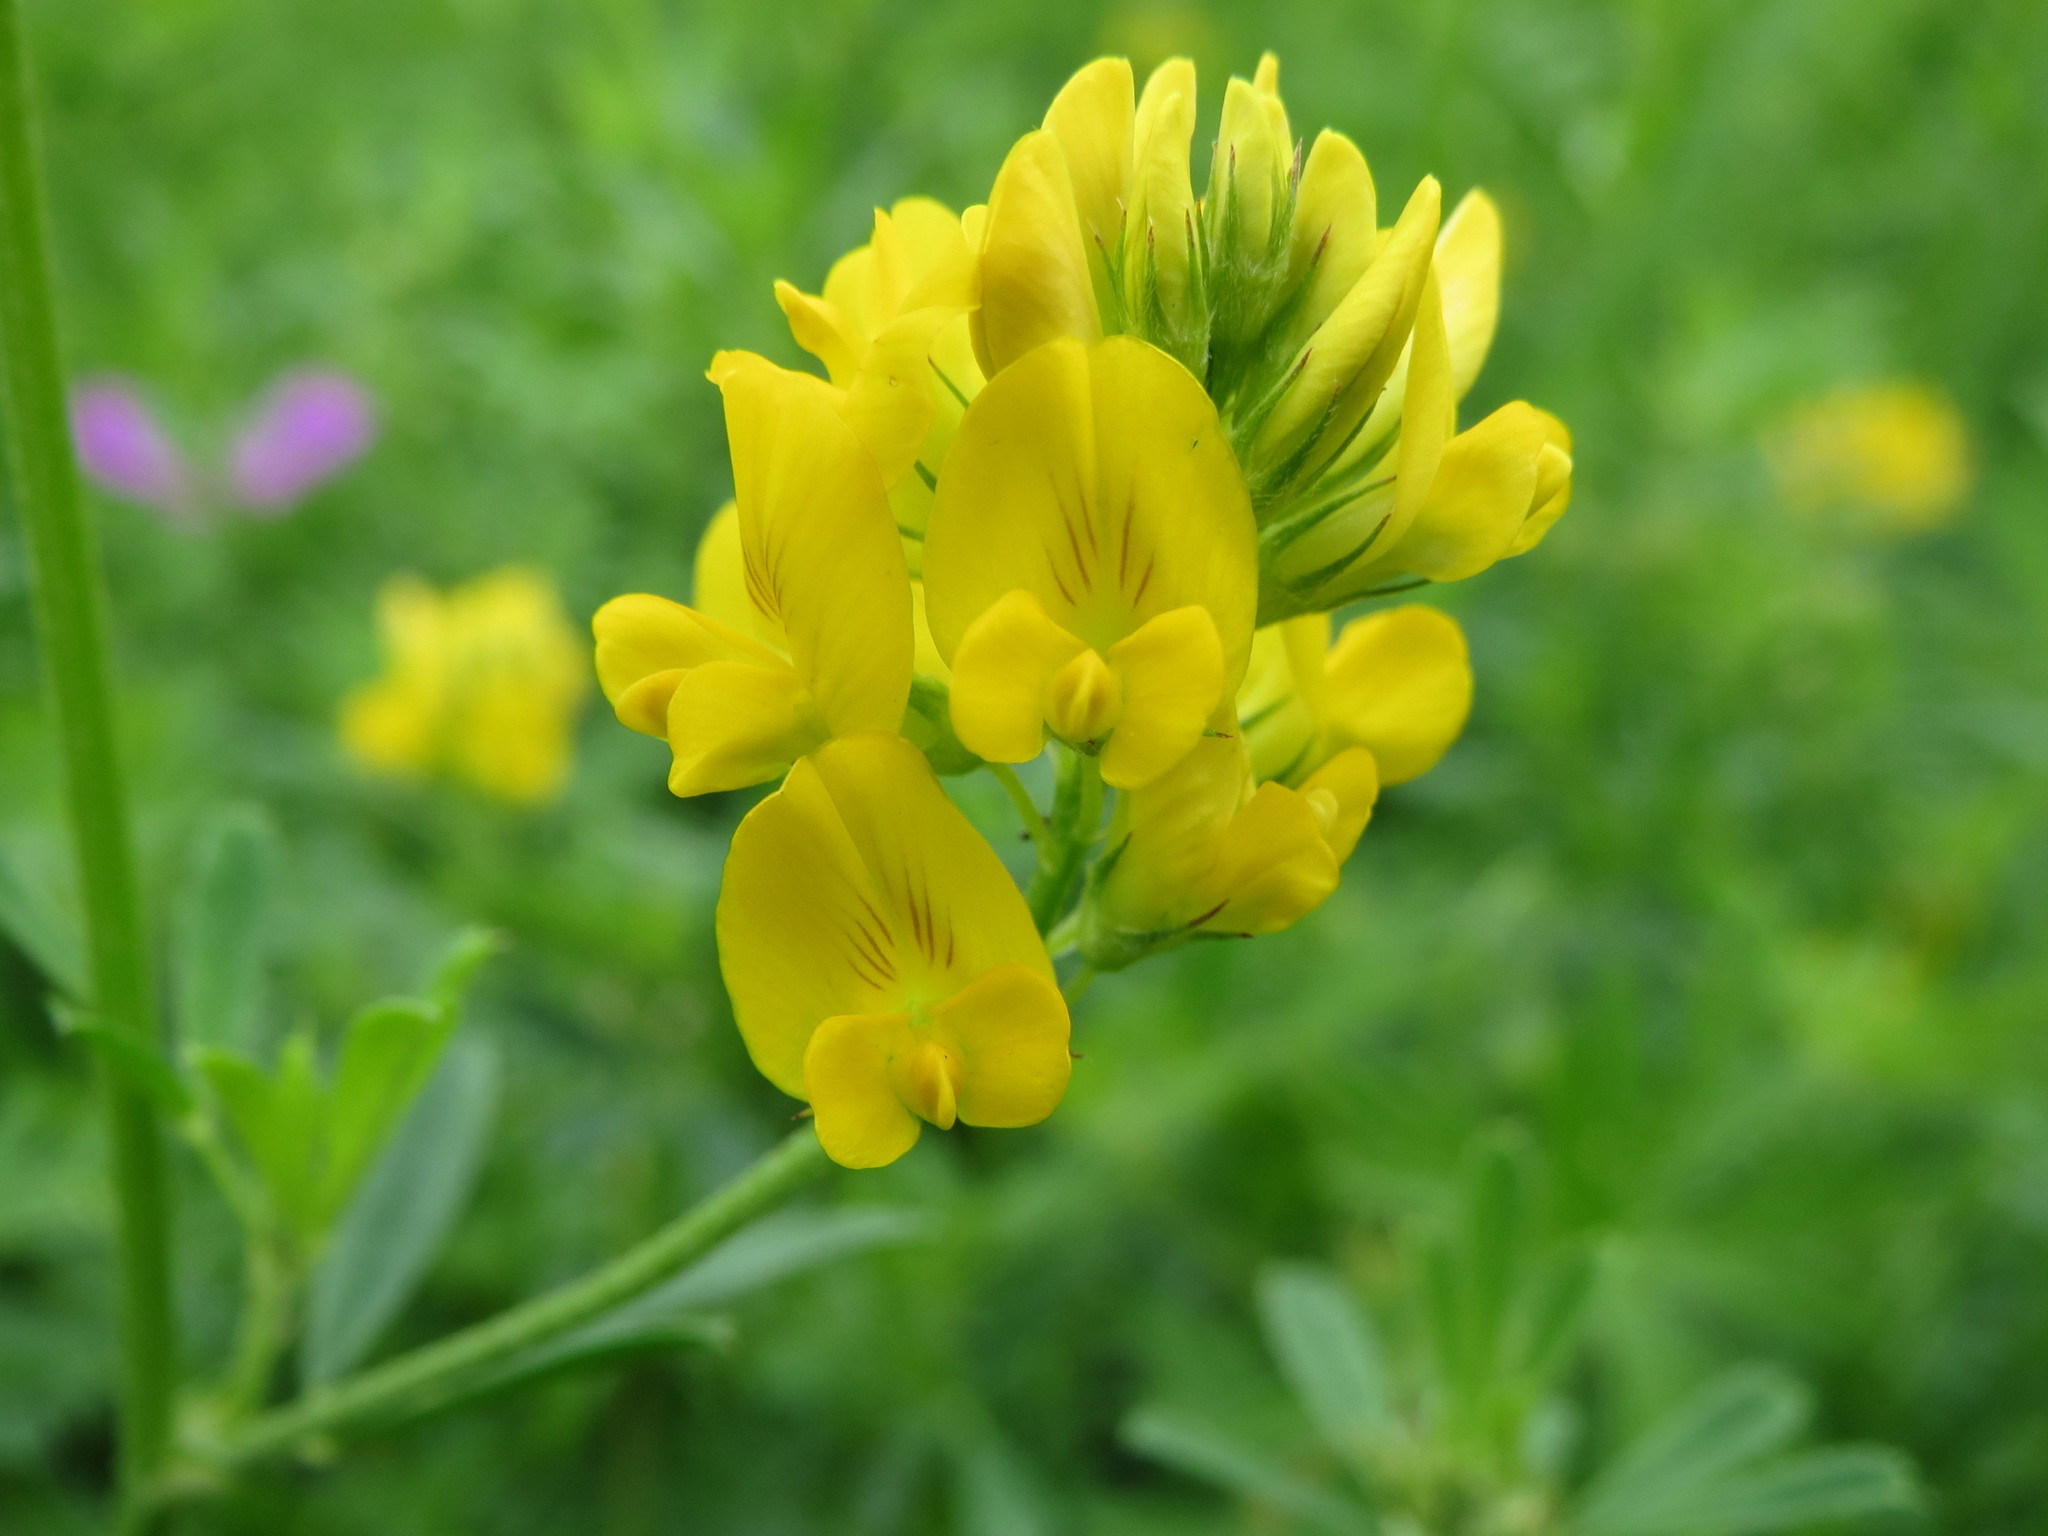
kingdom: Plantae
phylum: Tracheophyta
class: Magnoliopsida
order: Fabales
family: Fabaceae
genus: Medicago
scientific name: Medicago falcata
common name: Sickle medick
